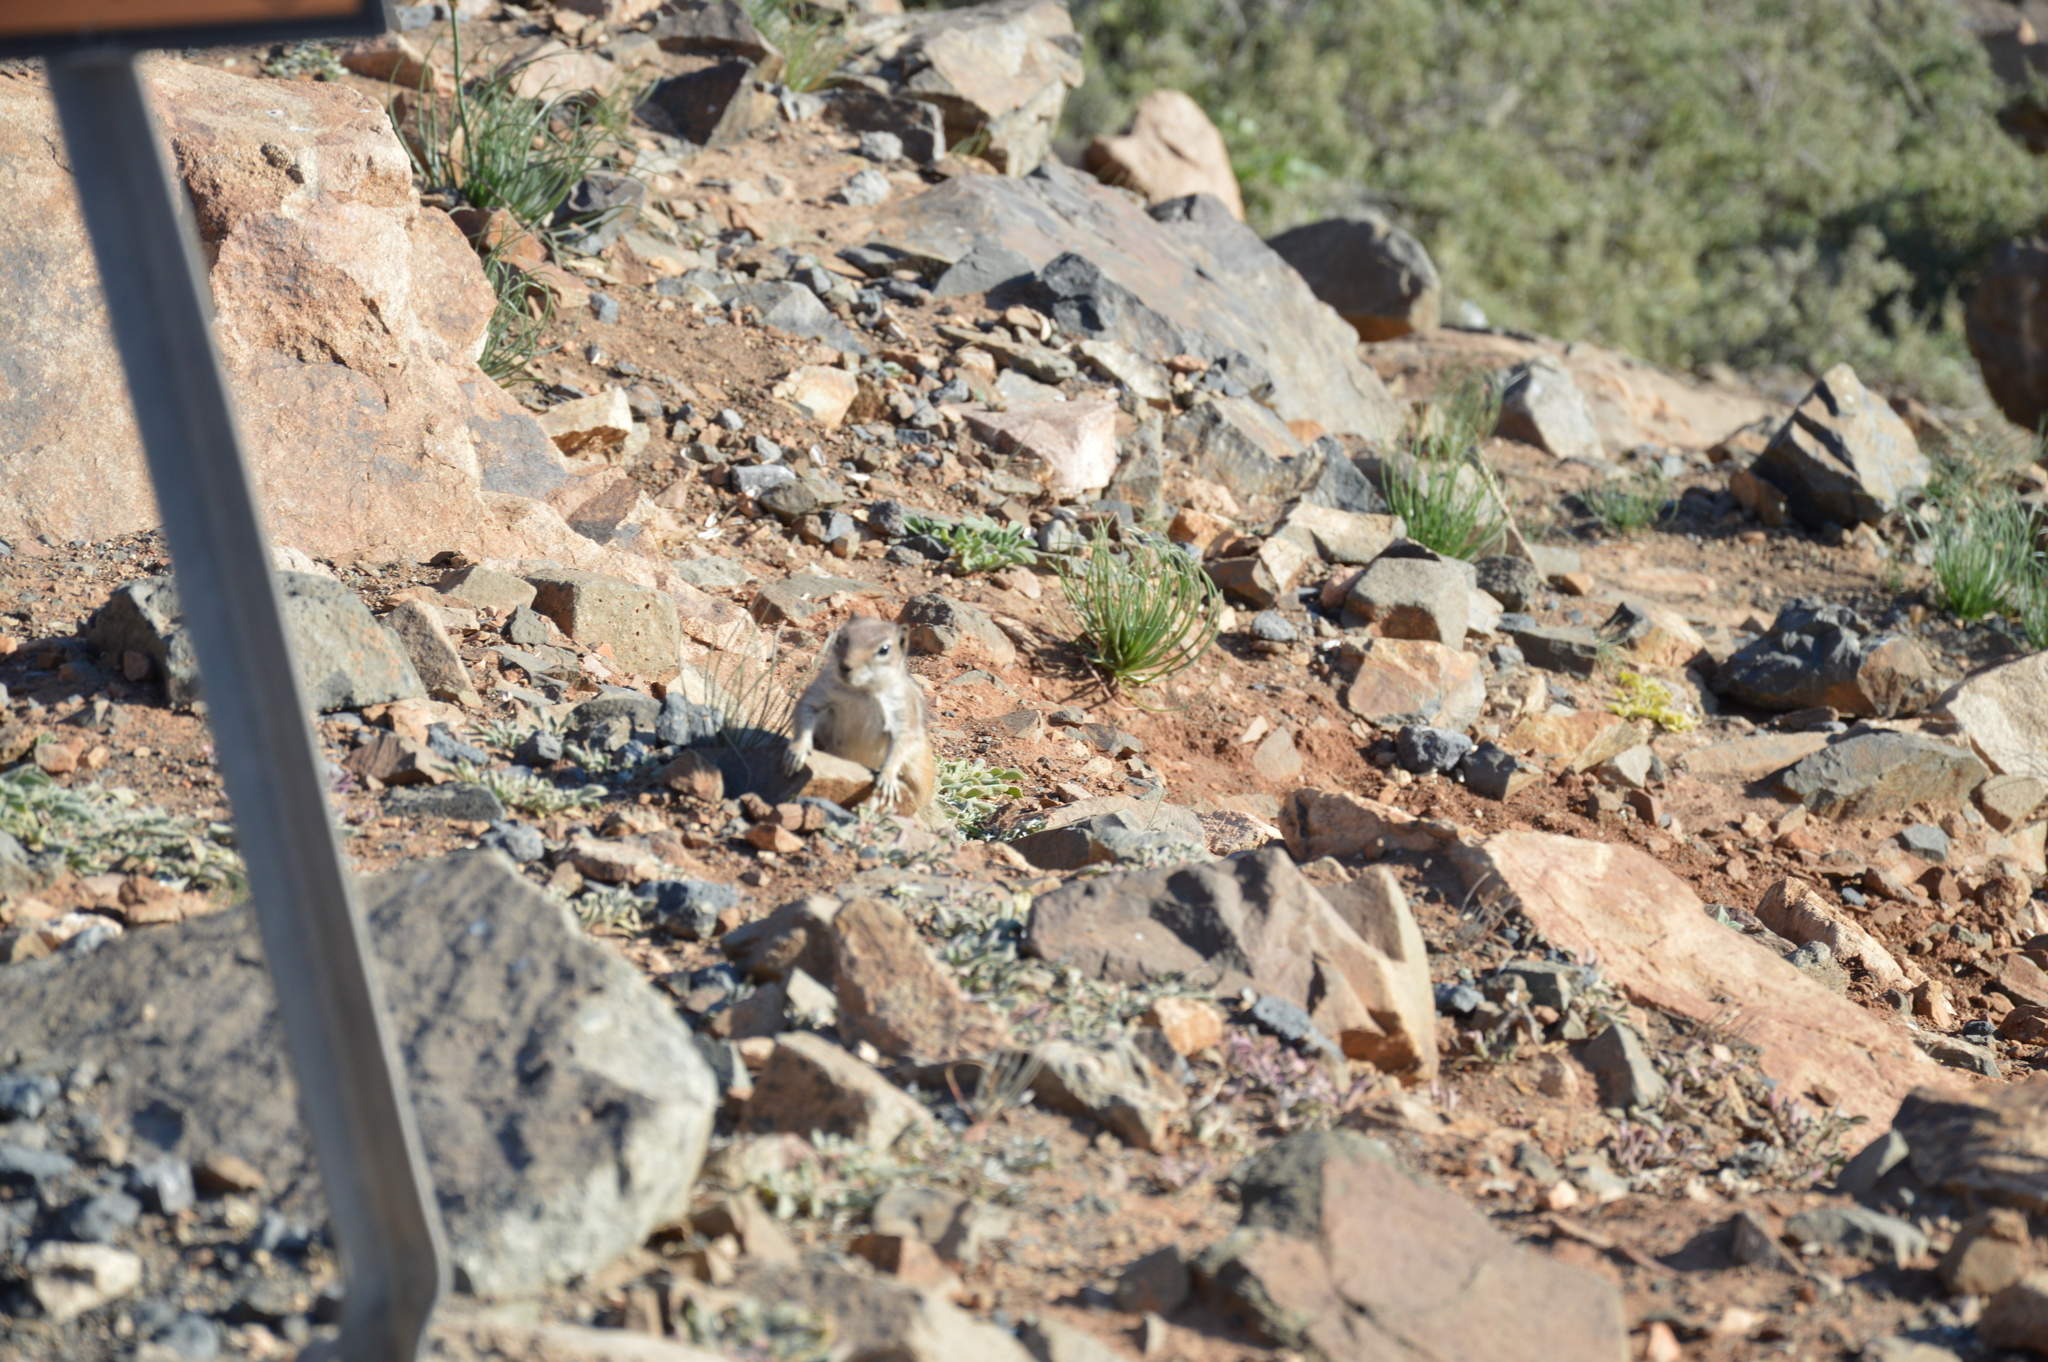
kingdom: Animalia
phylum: Chordata
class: Mammalia
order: Rodentia
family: Sciuridae
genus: Atlantoxerus
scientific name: Atlantoxerus getulus
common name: Barbary ground squirrel
